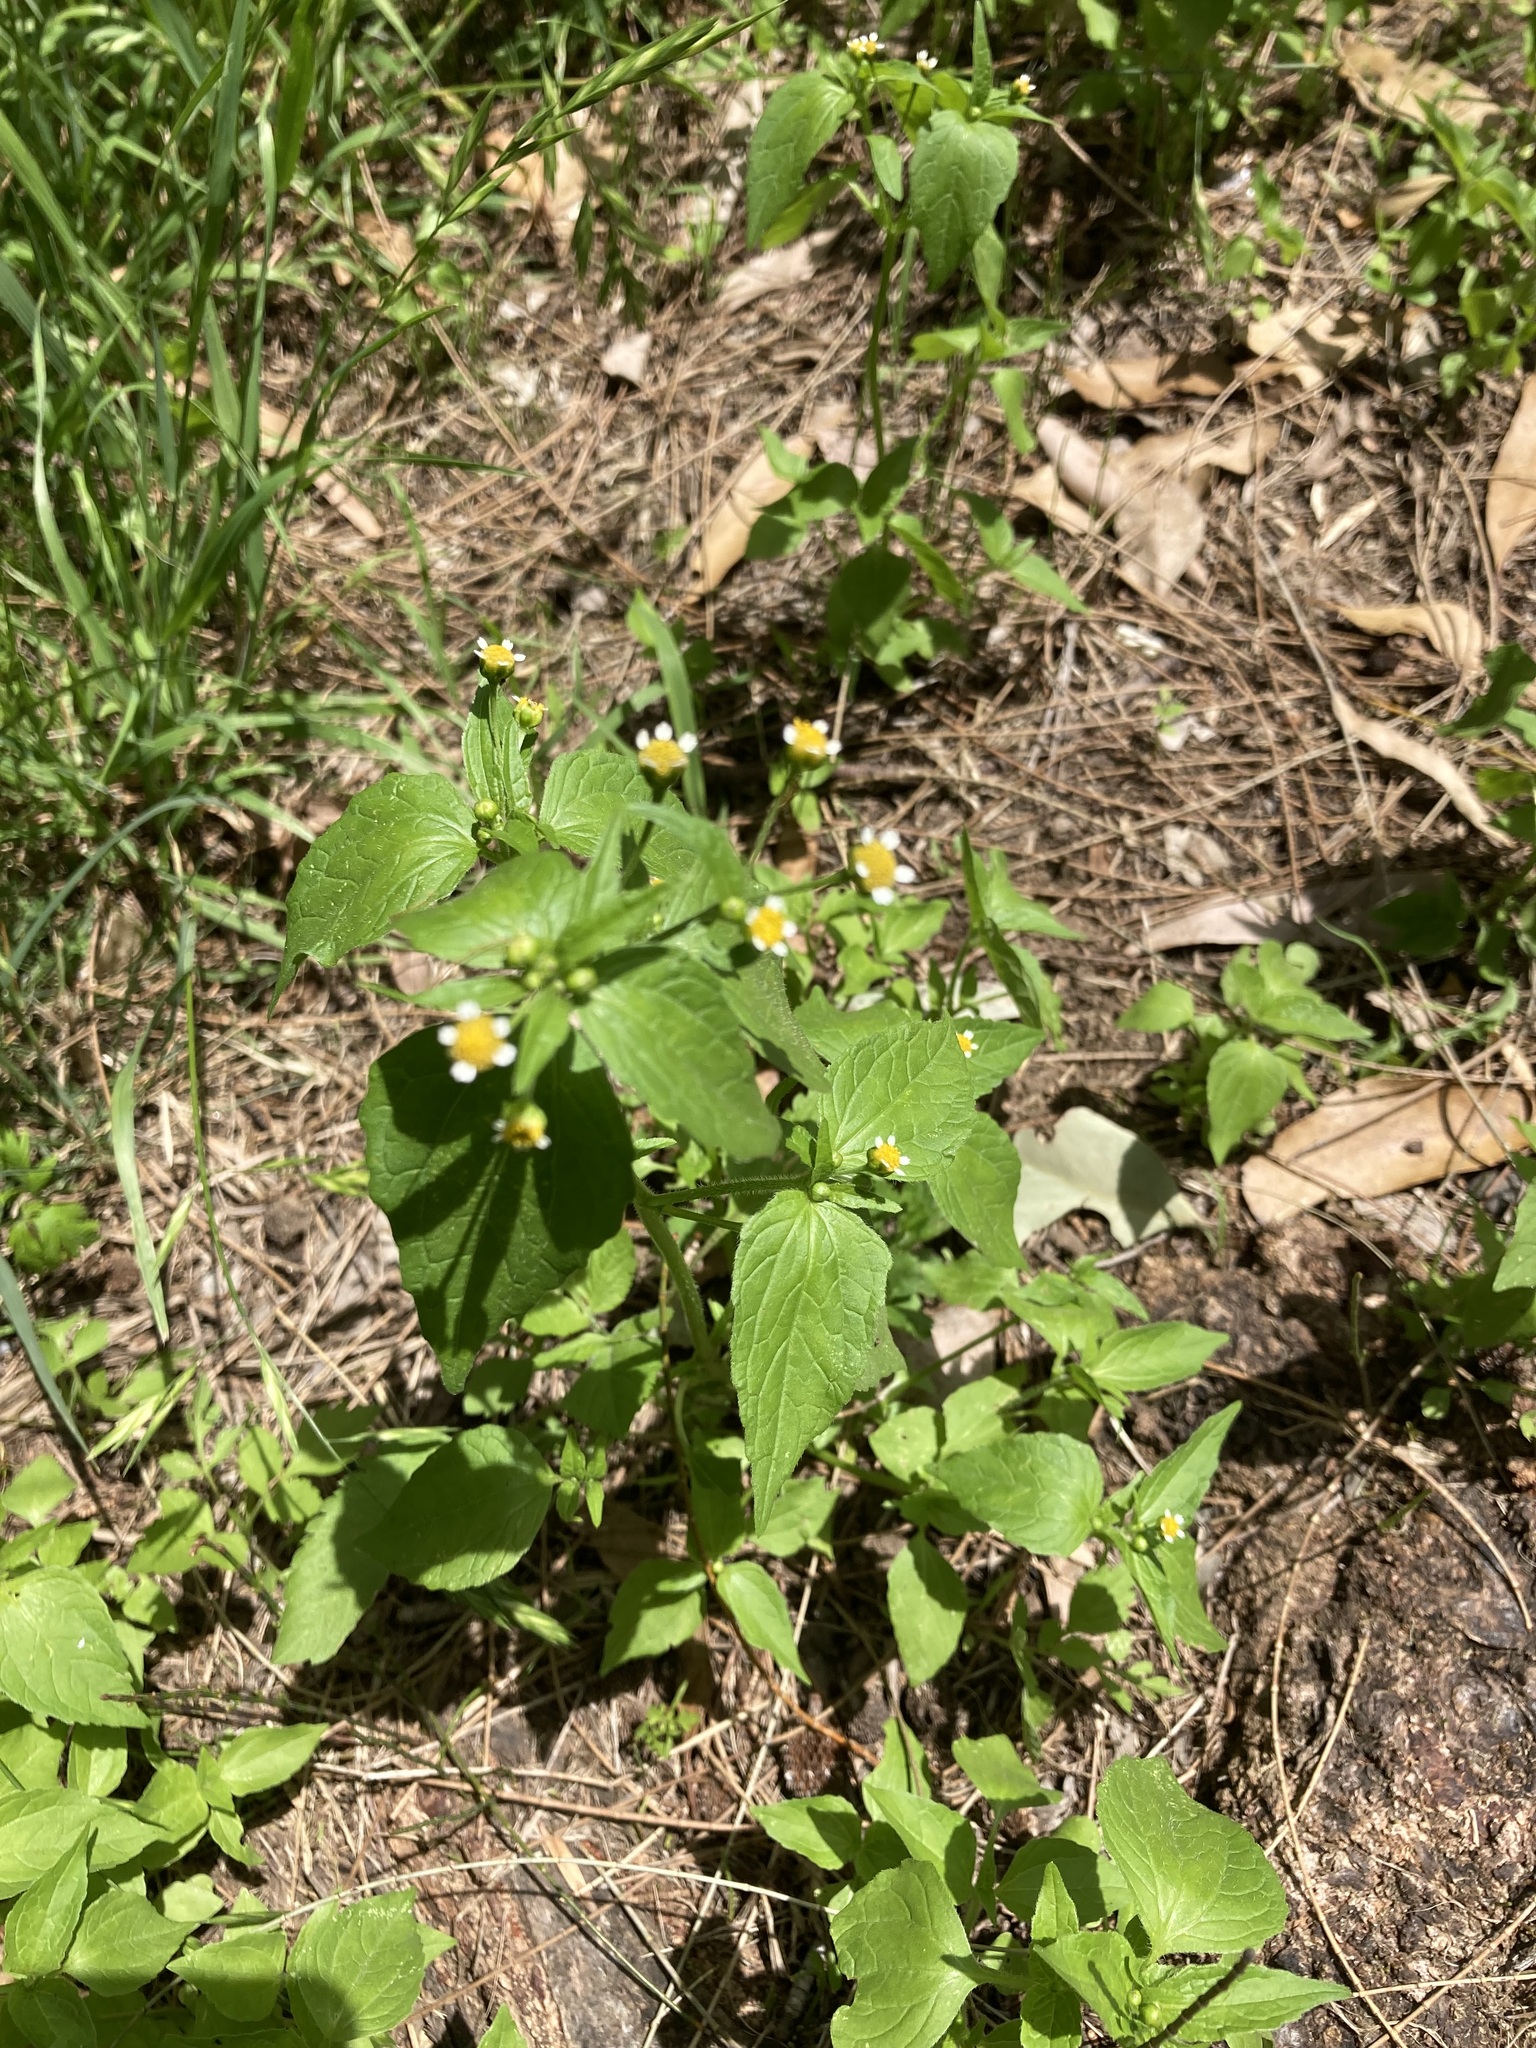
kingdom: Plantae
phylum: Tracheophyta
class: Magnoliopsida
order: Asterales
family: Asteraceae
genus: Galinsoga
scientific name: Galinsoga parviflora
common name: Gallant soldier
